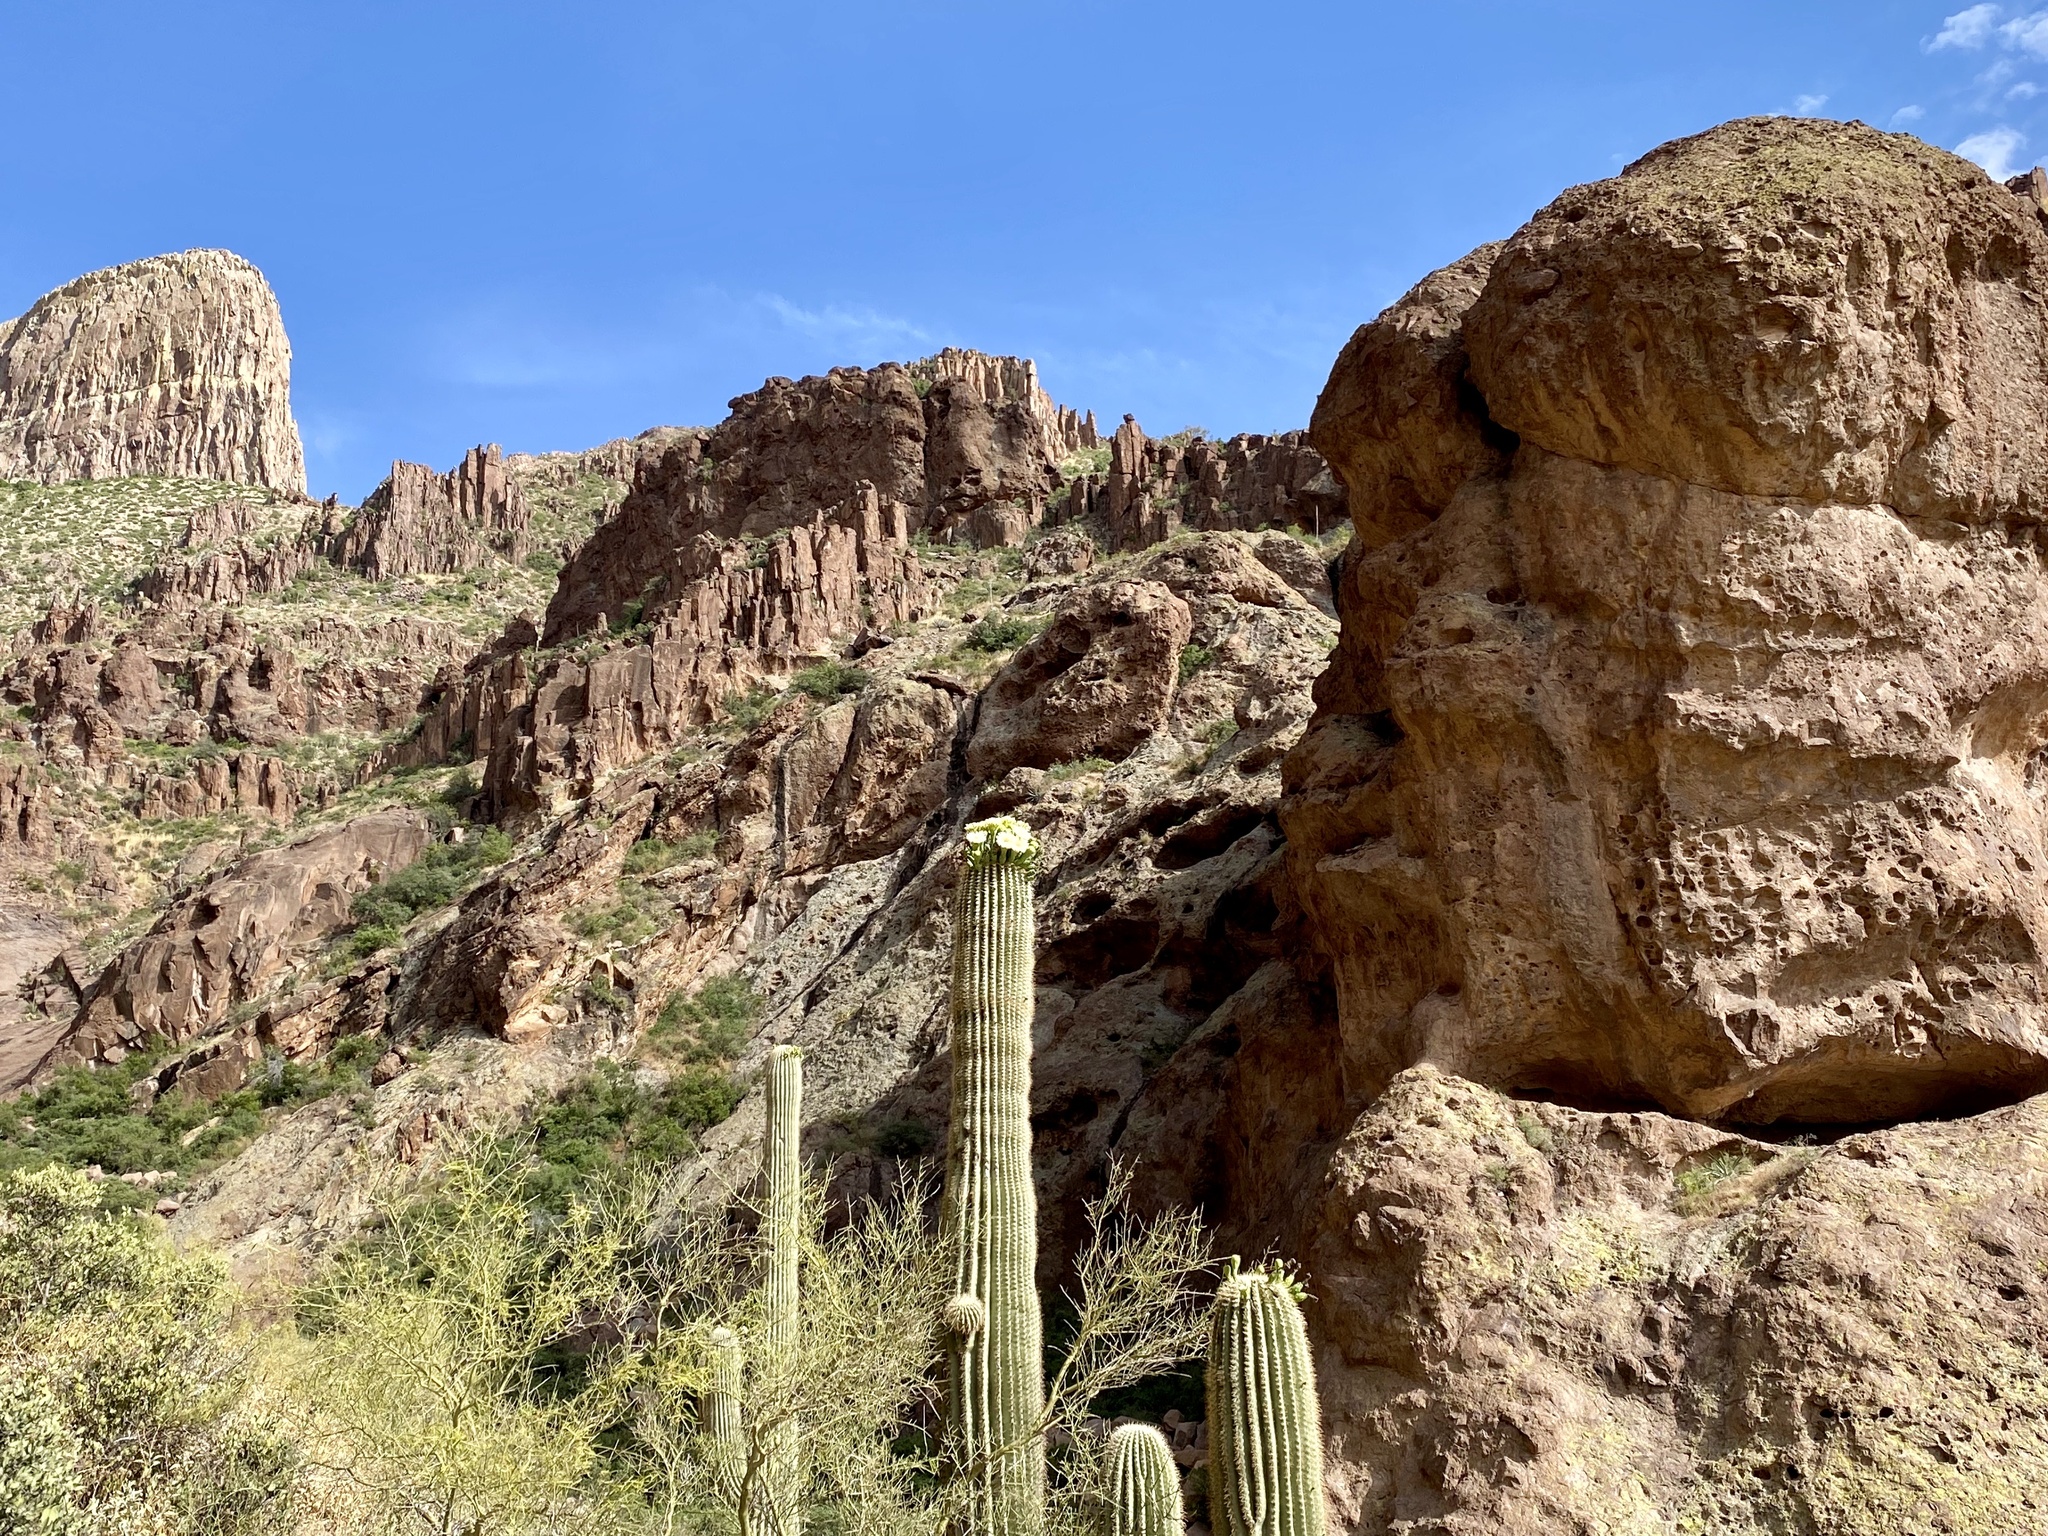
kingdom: Plantae
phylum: Tracheophyta
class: Magnoliopsida
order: Caryophyllales
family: Cactaceae
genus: Carnegiea
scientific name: Carnegiea gigantea
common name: Saguaro
